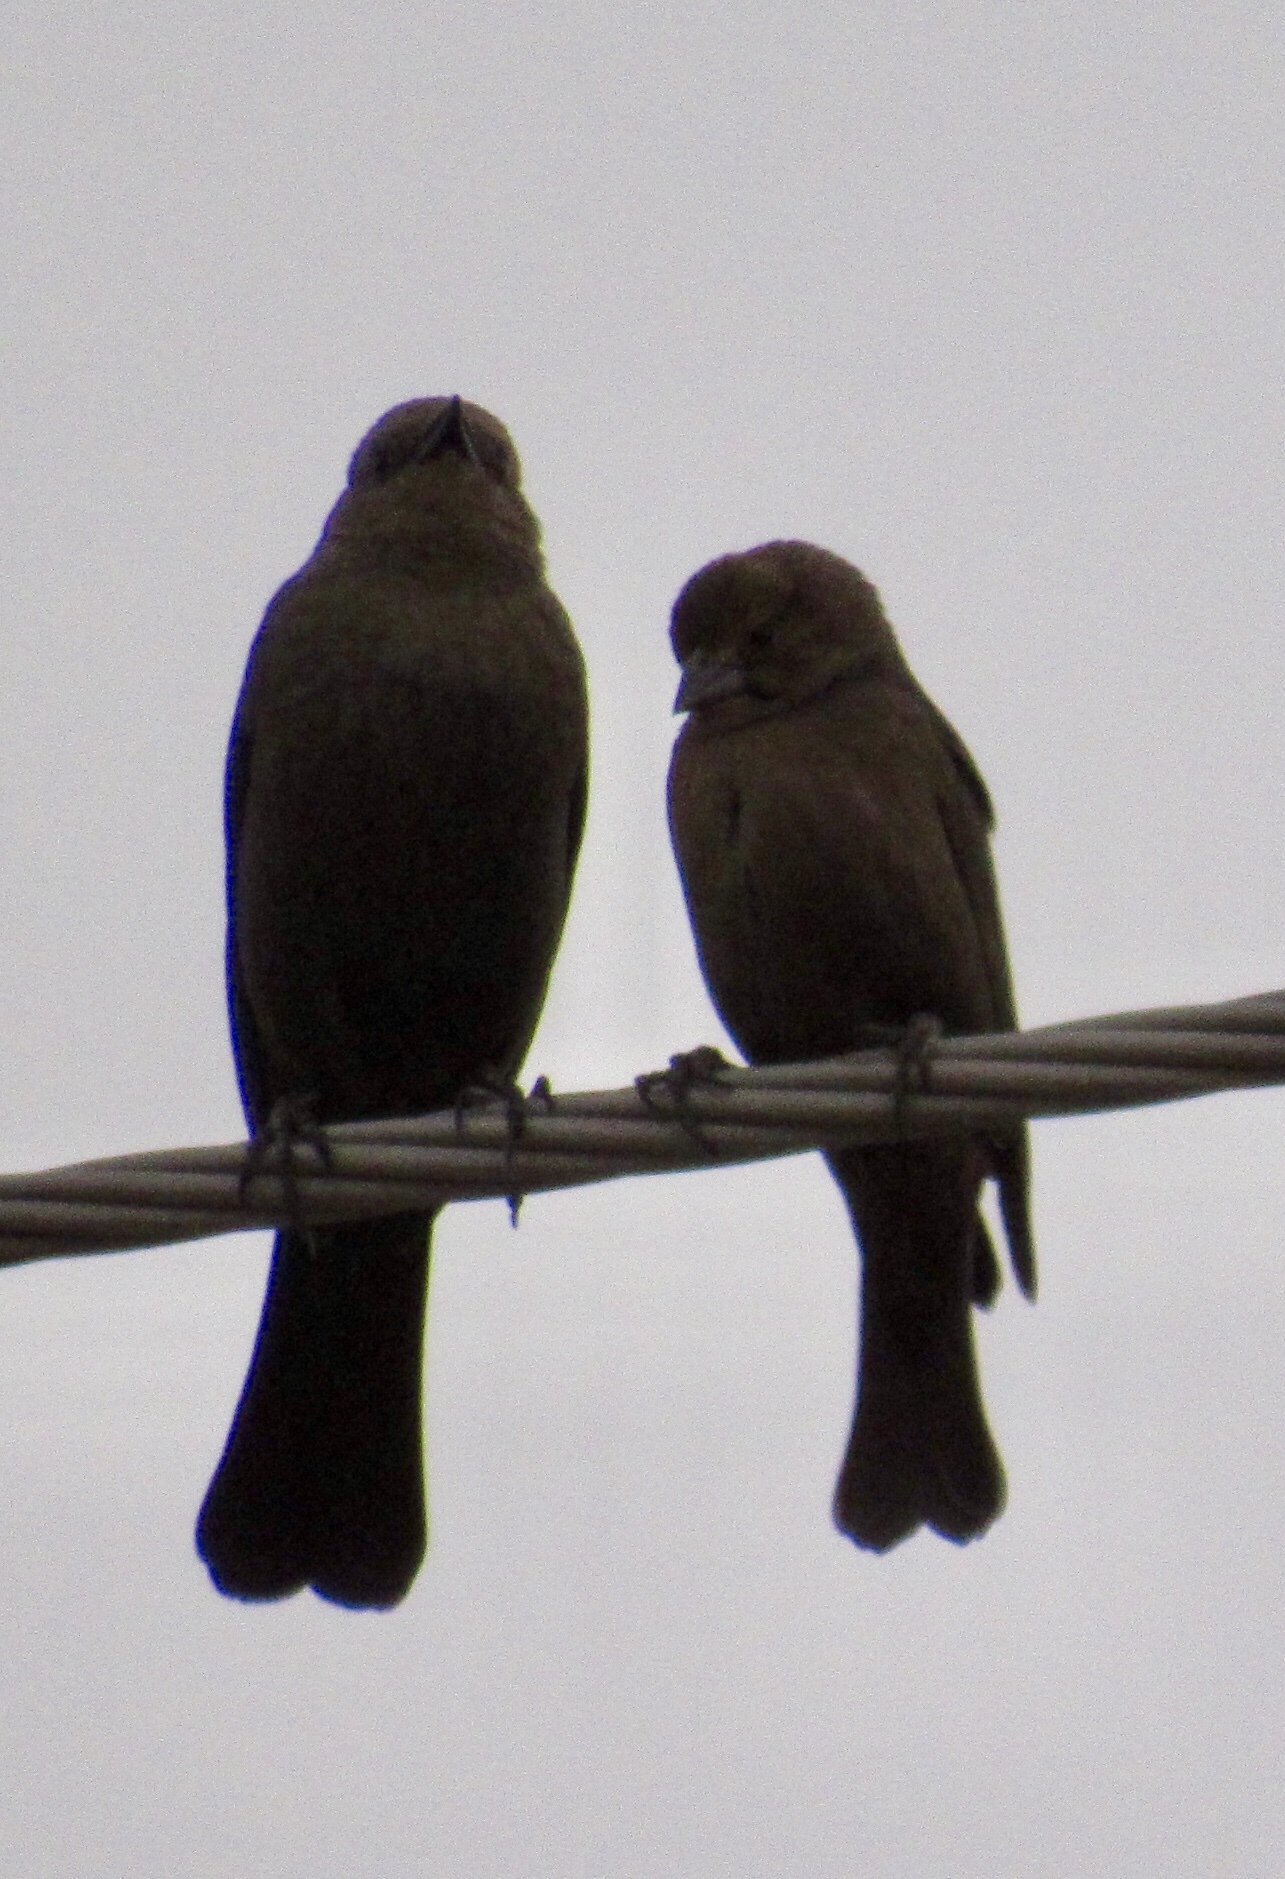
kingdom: Animalia
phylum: Chordata
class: Aves
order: Passeriformes
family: Icteridae
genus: Molothrus
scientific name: Molothrus ater
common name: Brown-headed cowbird
